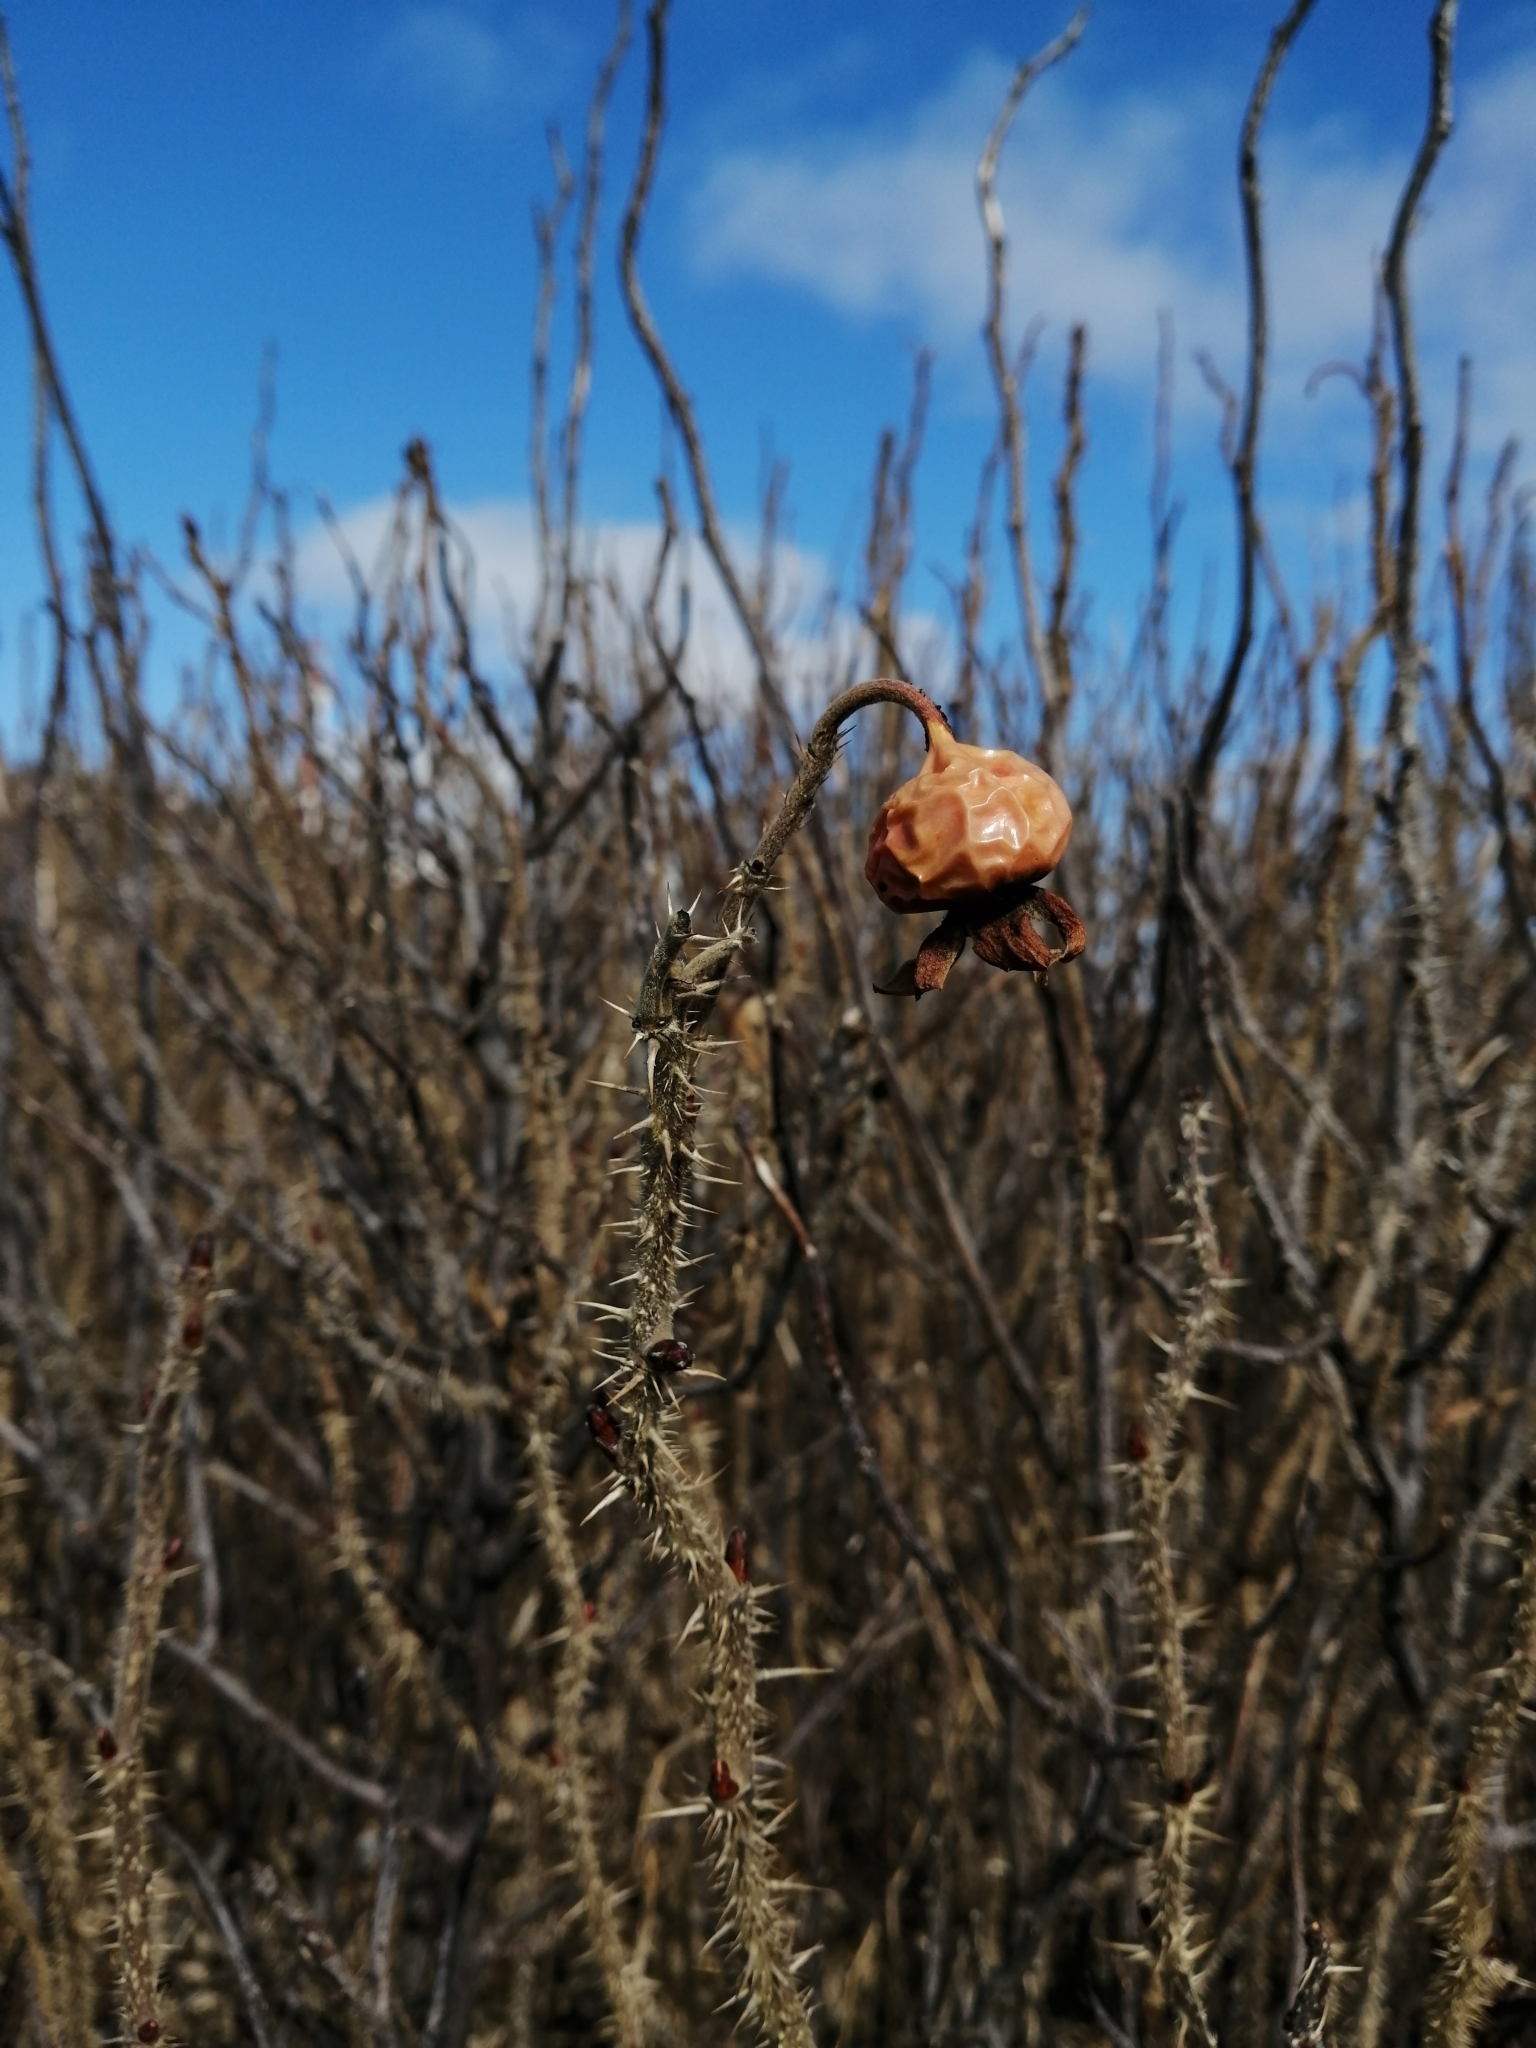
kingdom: Plantae
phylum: Tracheophyta
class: Magnoliopsida
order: Rosales
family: Rosaceae
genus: Rosa
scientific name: Rosa rugosa
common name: Japanese rose
